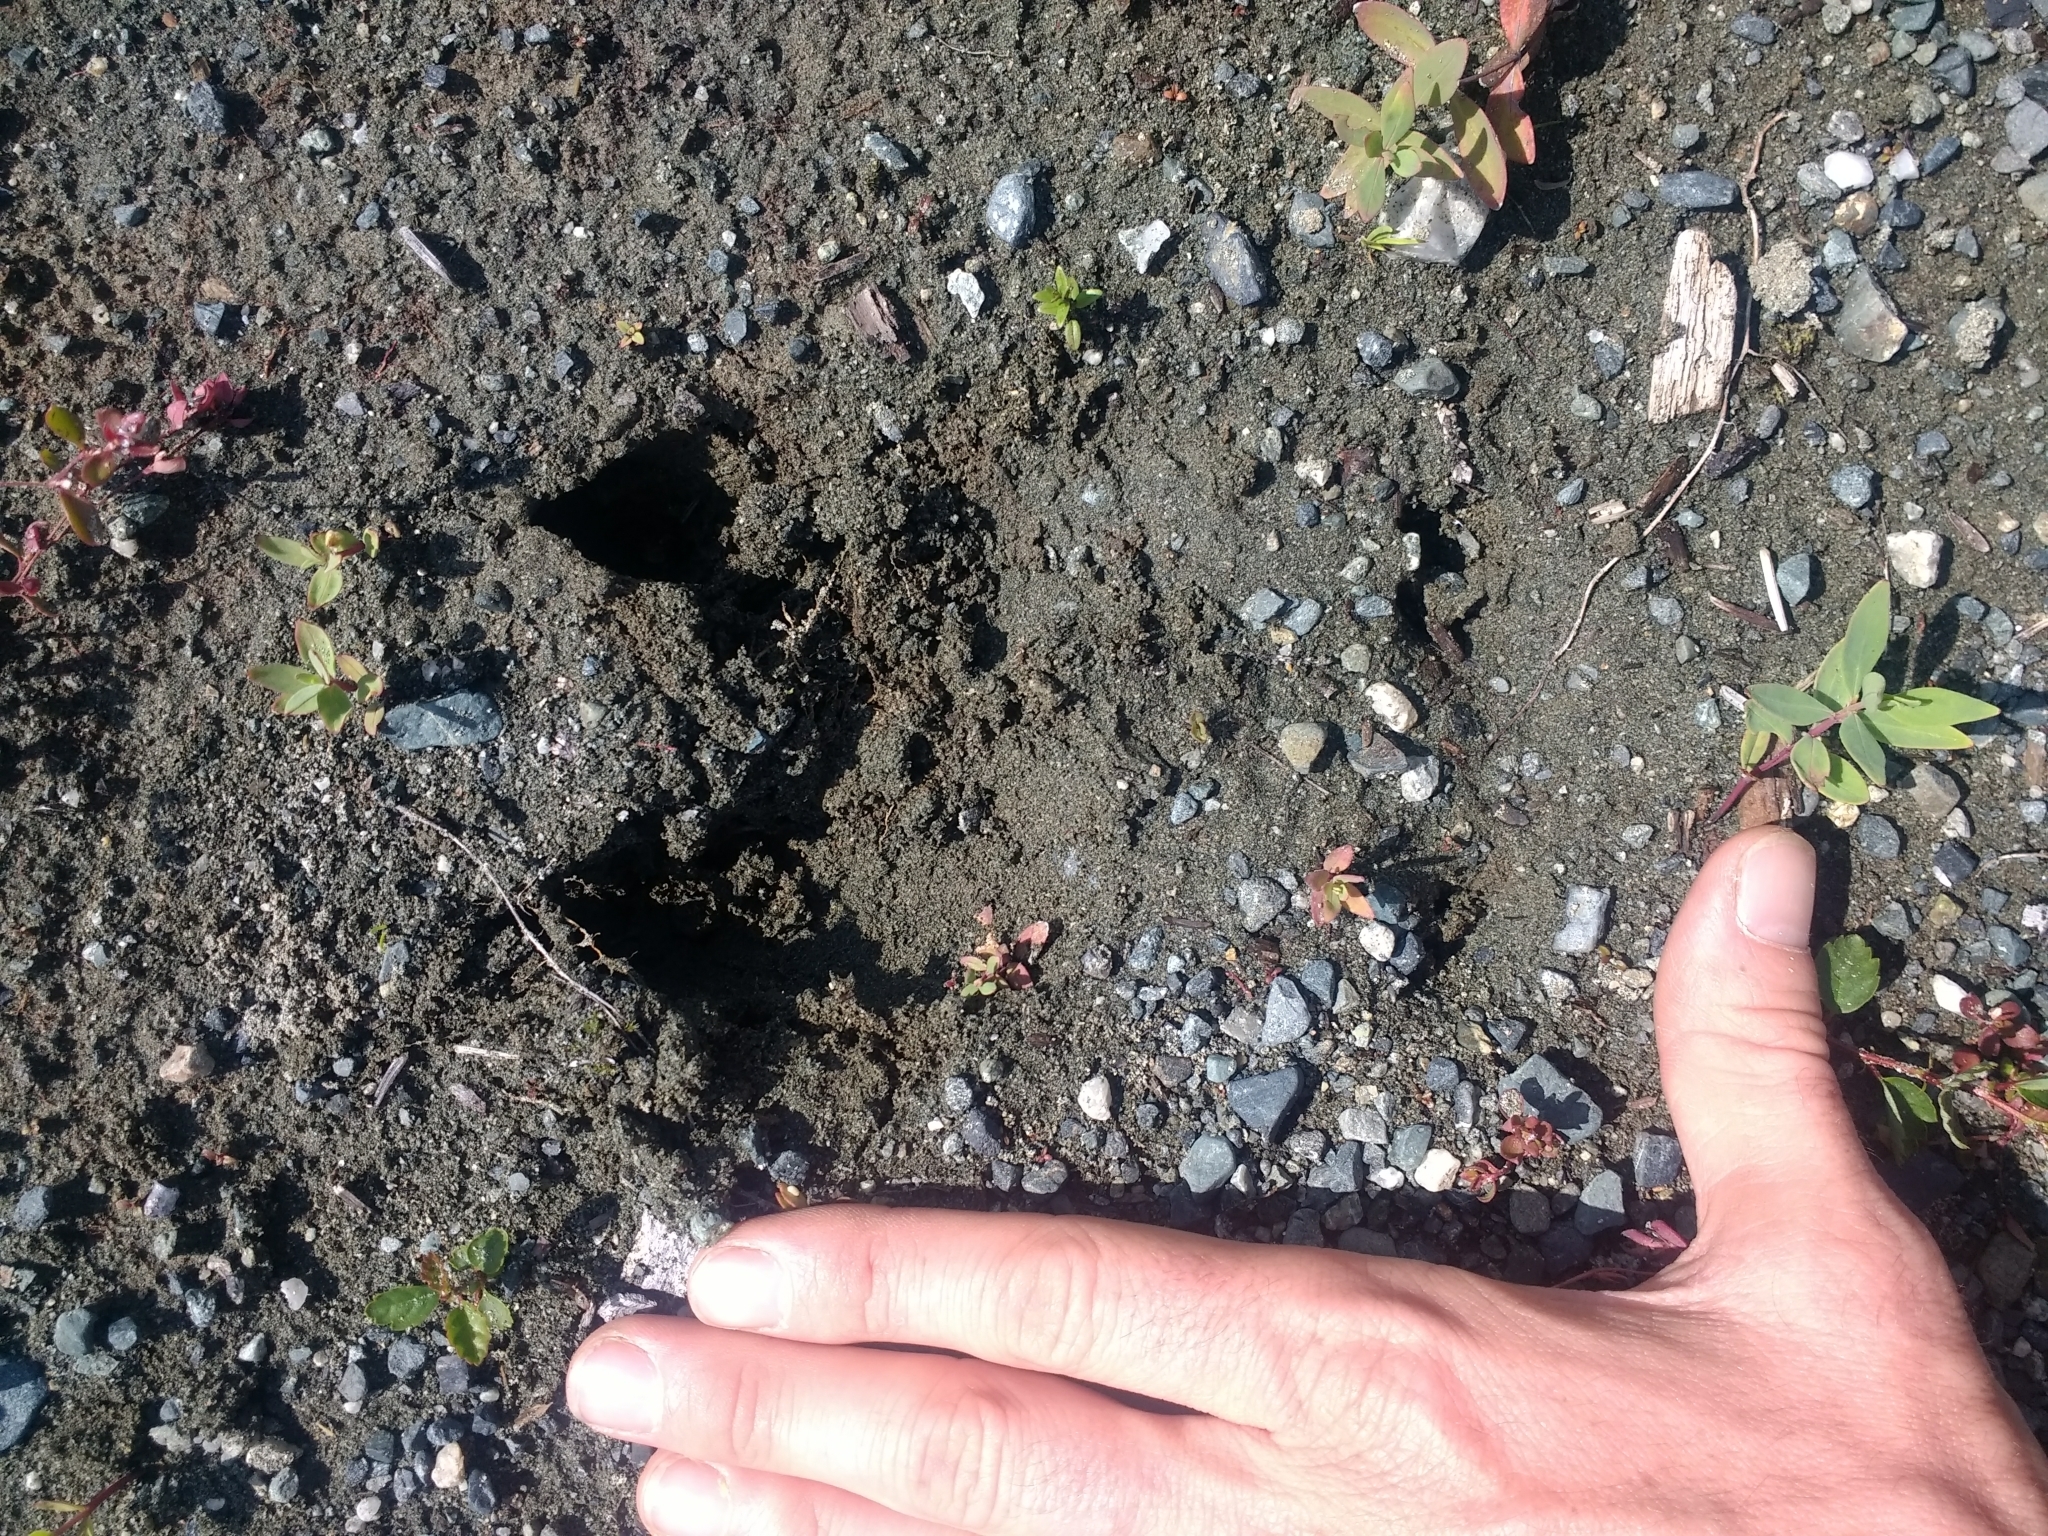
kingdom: Animalia
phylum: Chordata
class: Mammalia
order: Artiodactyla
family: Cervidae
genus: Cervus
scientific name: Cervus elaphus
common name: Red deer
